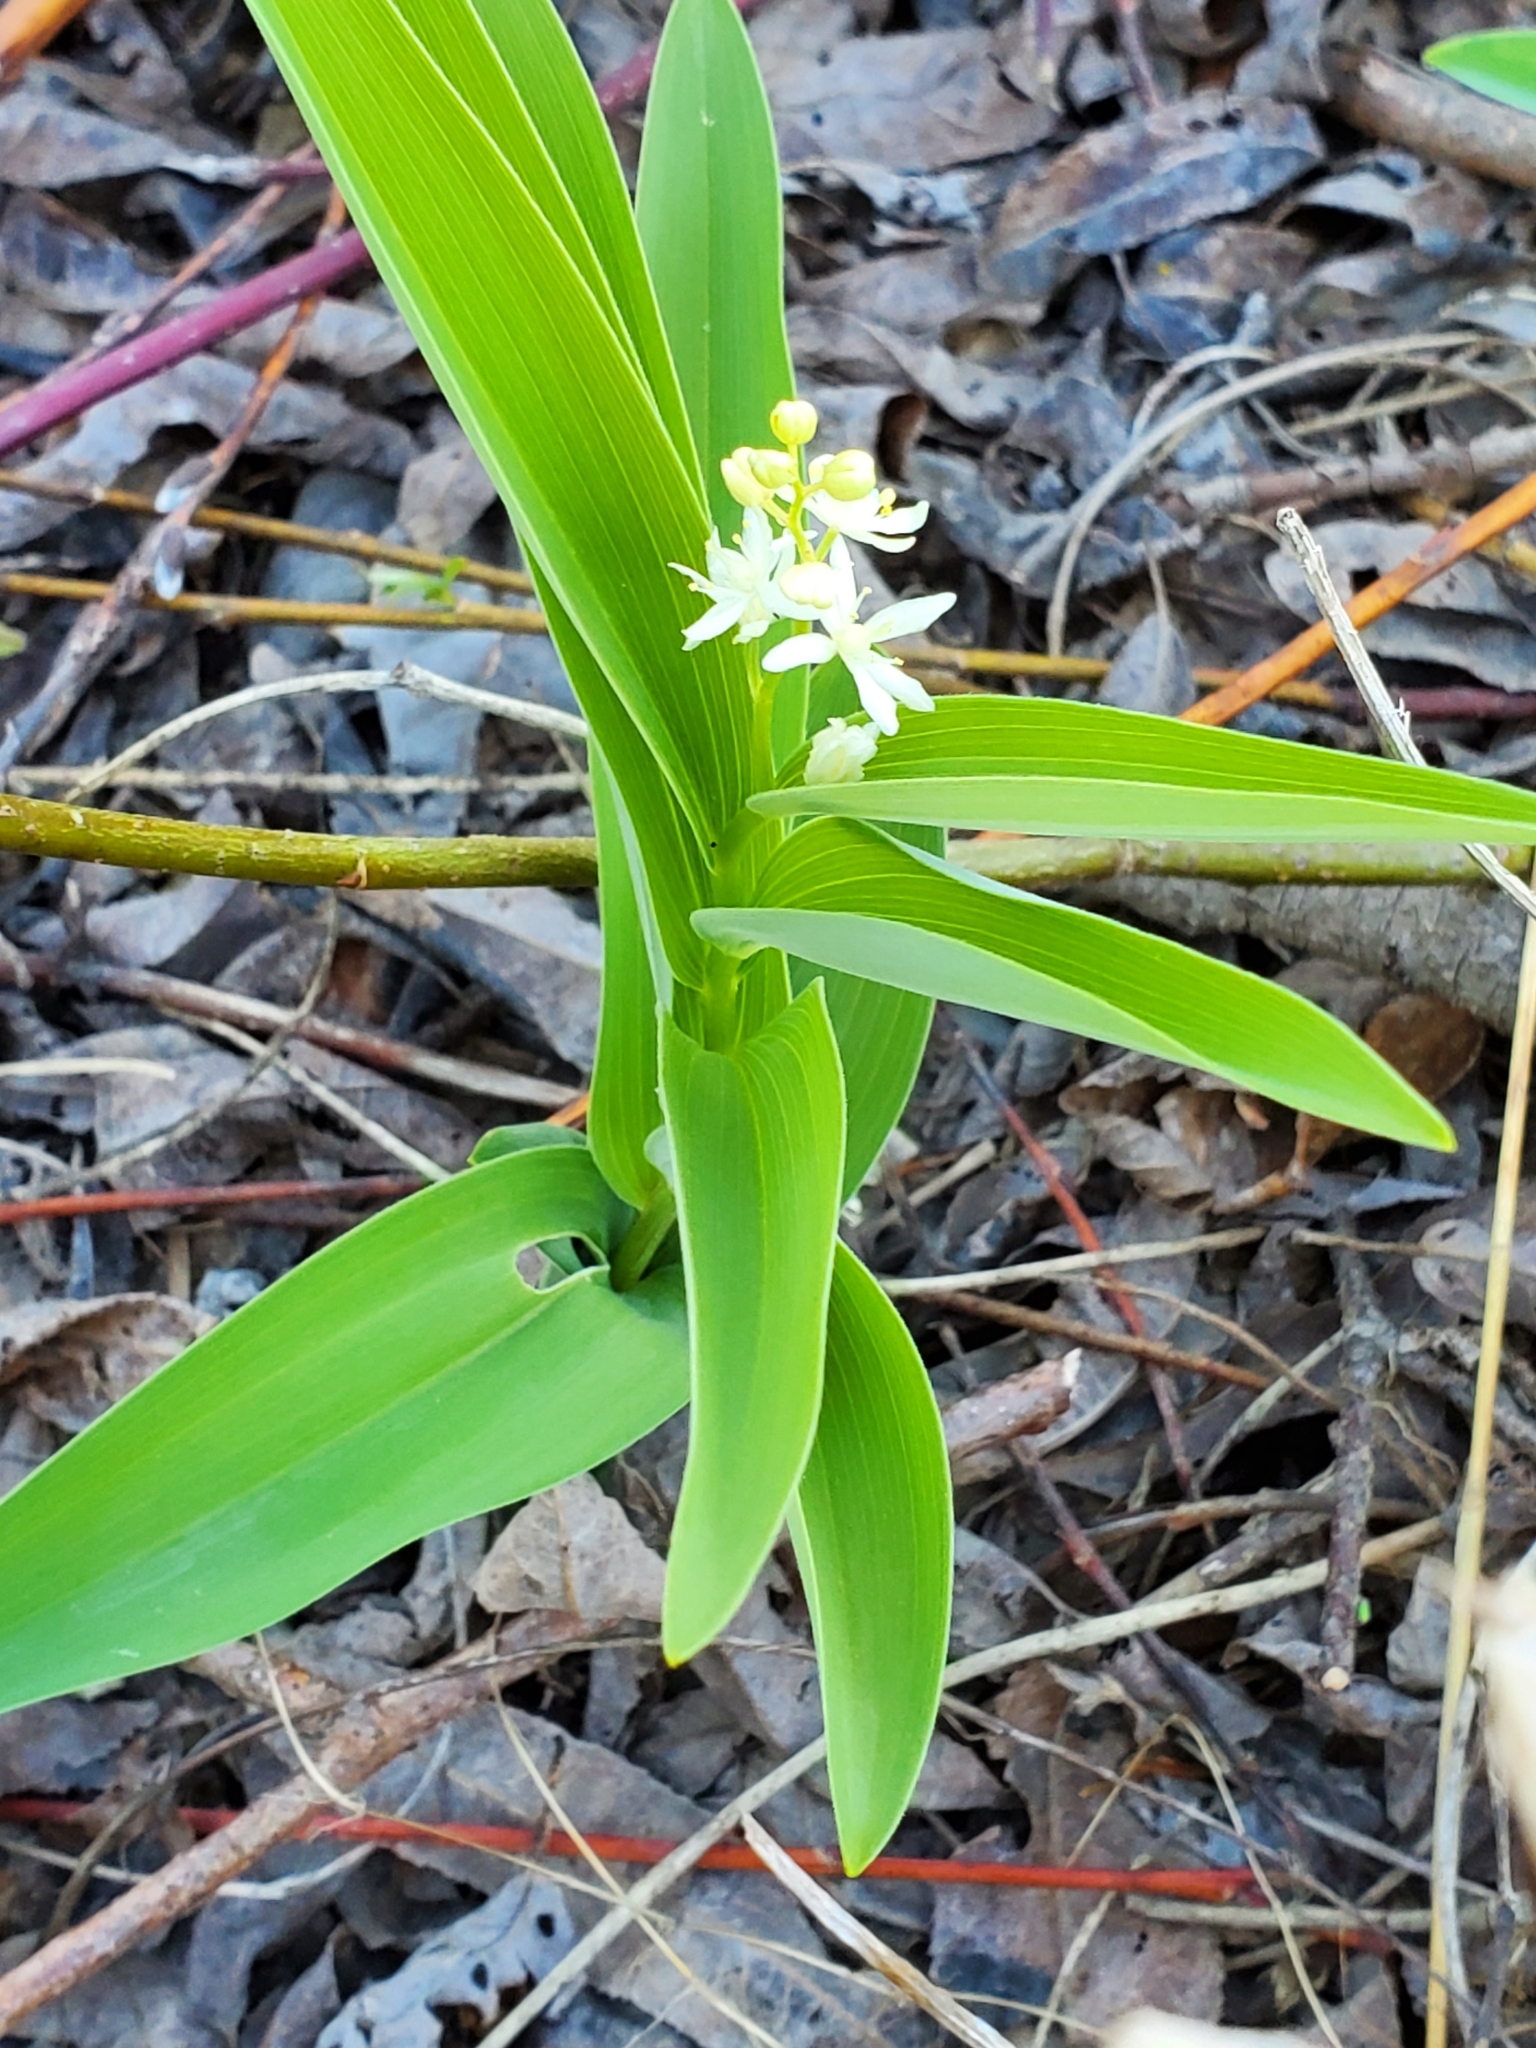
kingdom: Plantae
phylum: Tracheophyta
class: Liliopsida
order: Asparagales
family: Asparagaceae
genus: Maianthemum
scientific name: Maianthemum stellatum
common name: Little false solomon's seal
